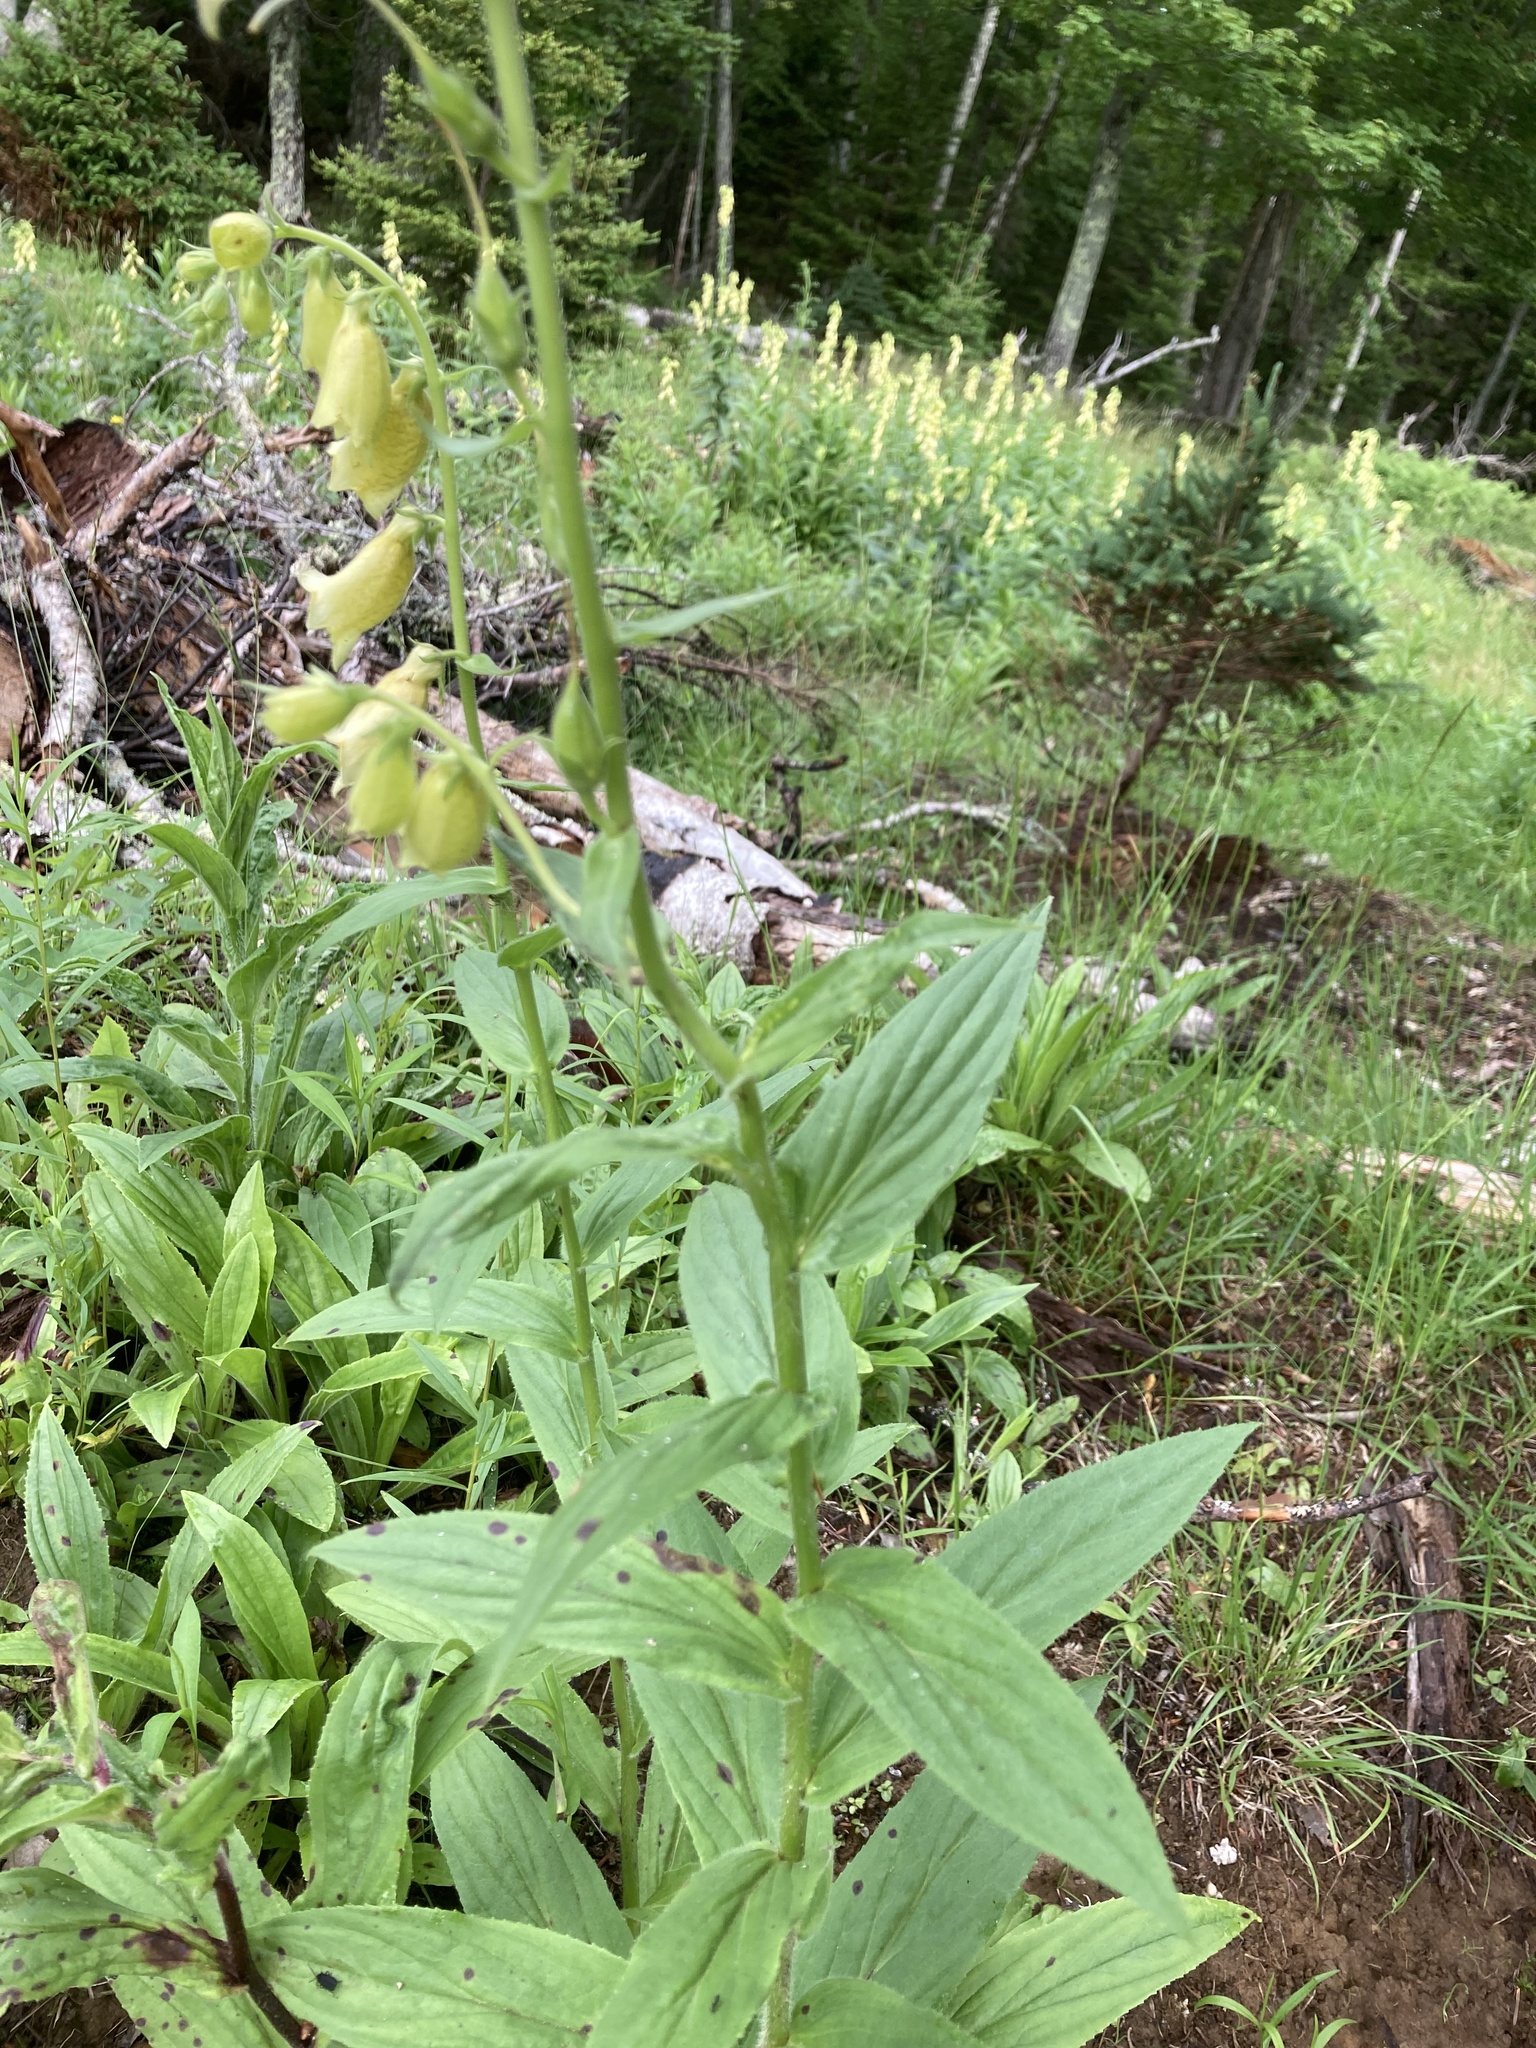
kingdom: Plantae
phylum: Tracheophyta
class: Magnoliopsida
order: Lamiales
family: Plantaginaceae
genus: Digitalis
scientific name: Digitalis grandiflora
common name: Yellow foxglove
